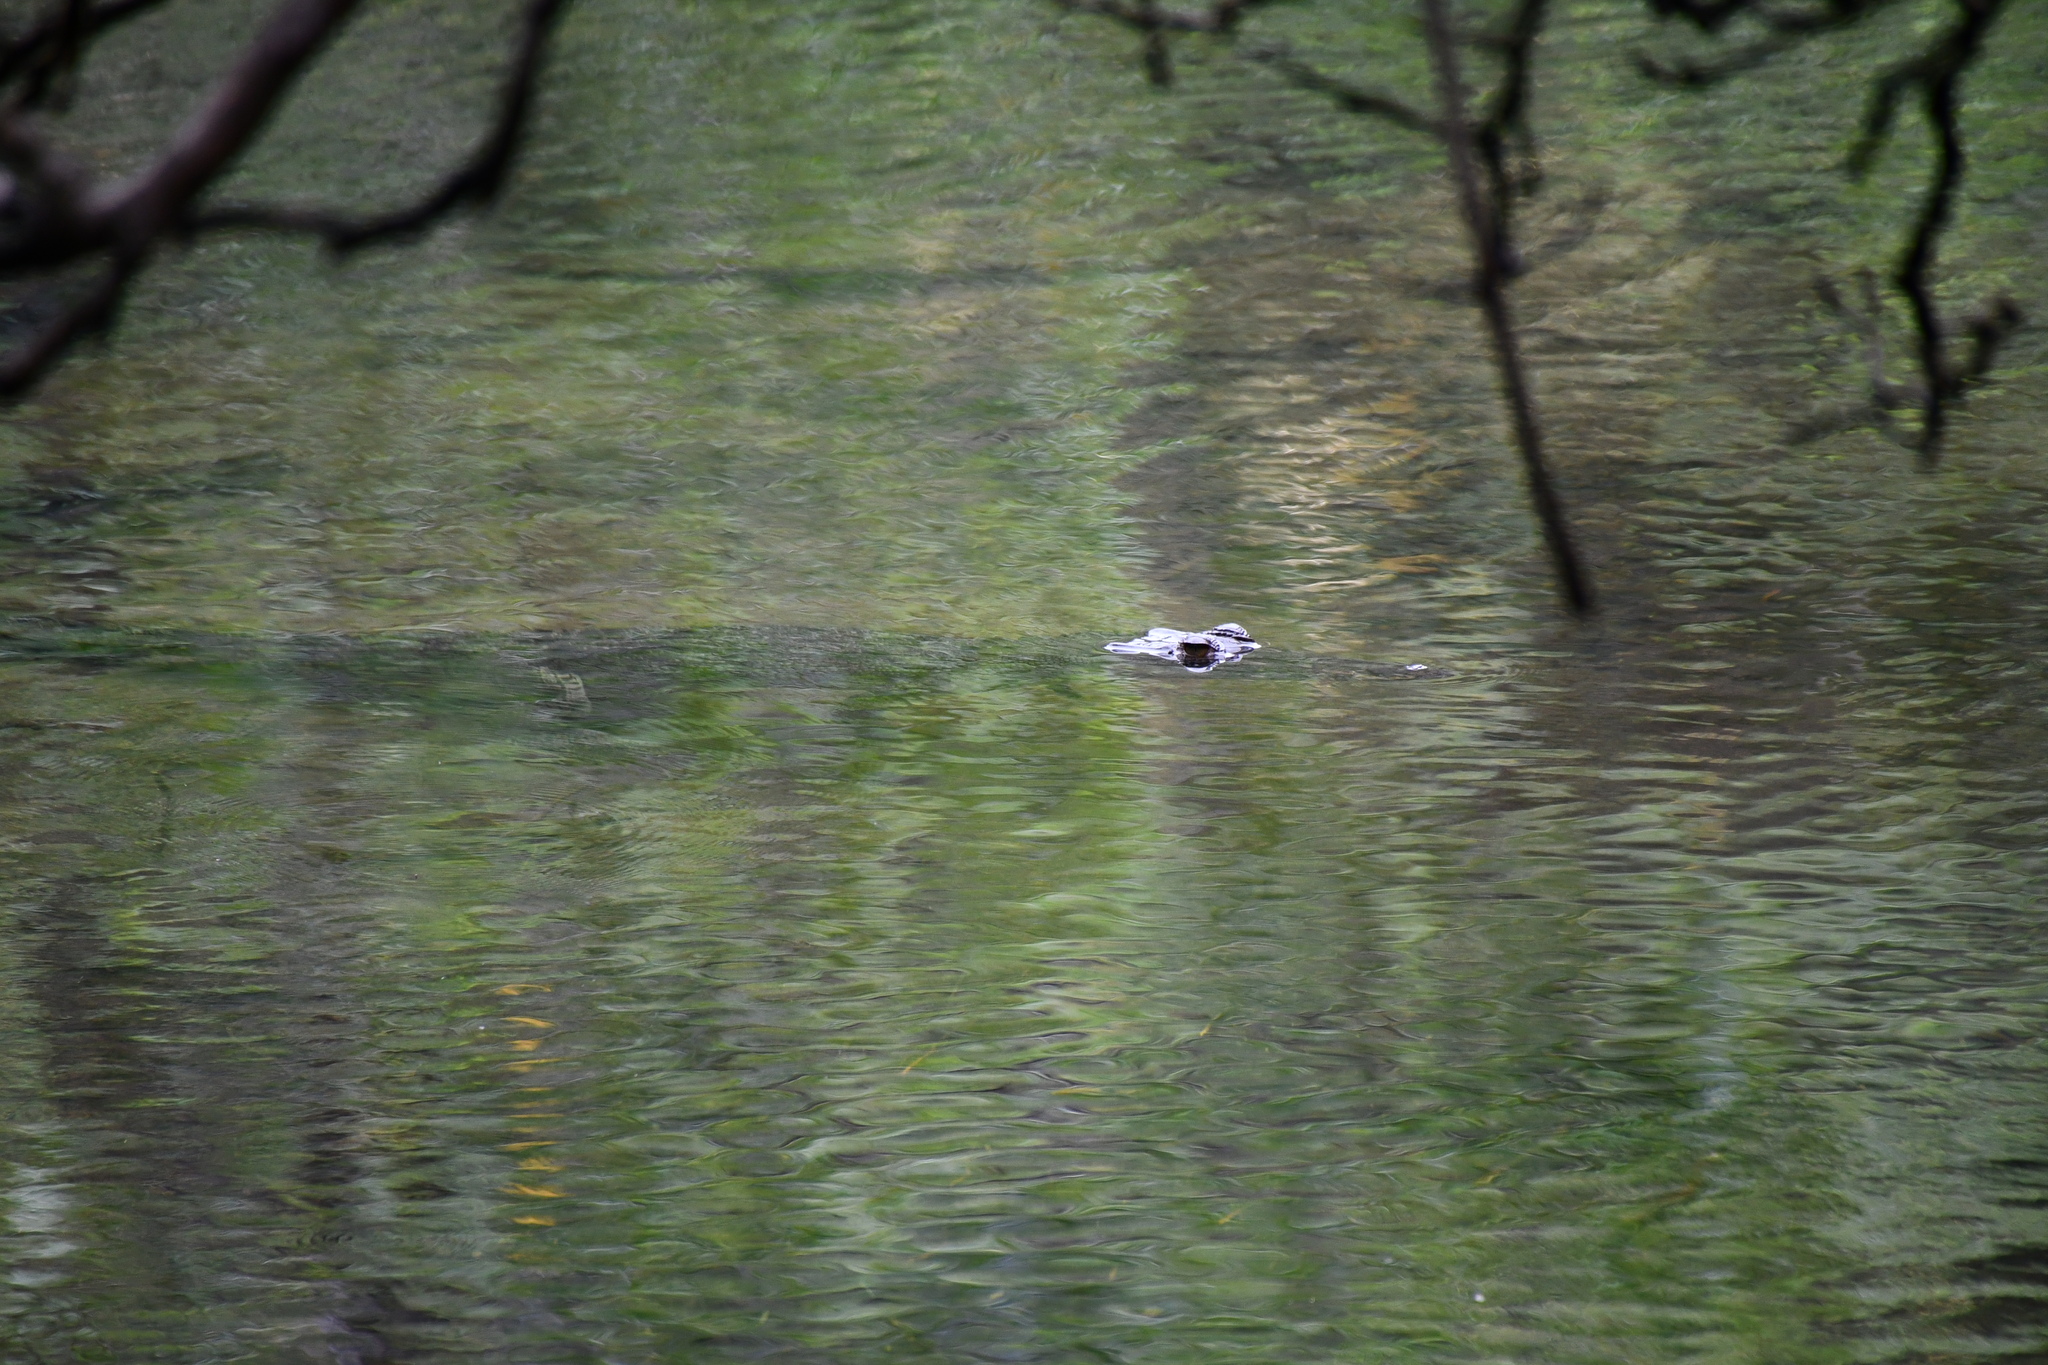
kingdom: Animalia
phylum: Chordata
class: Crocodylia
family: Crocodylidae
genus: Crocodylus
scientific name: Crocodylus porosus
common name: Saltwater crocodile
